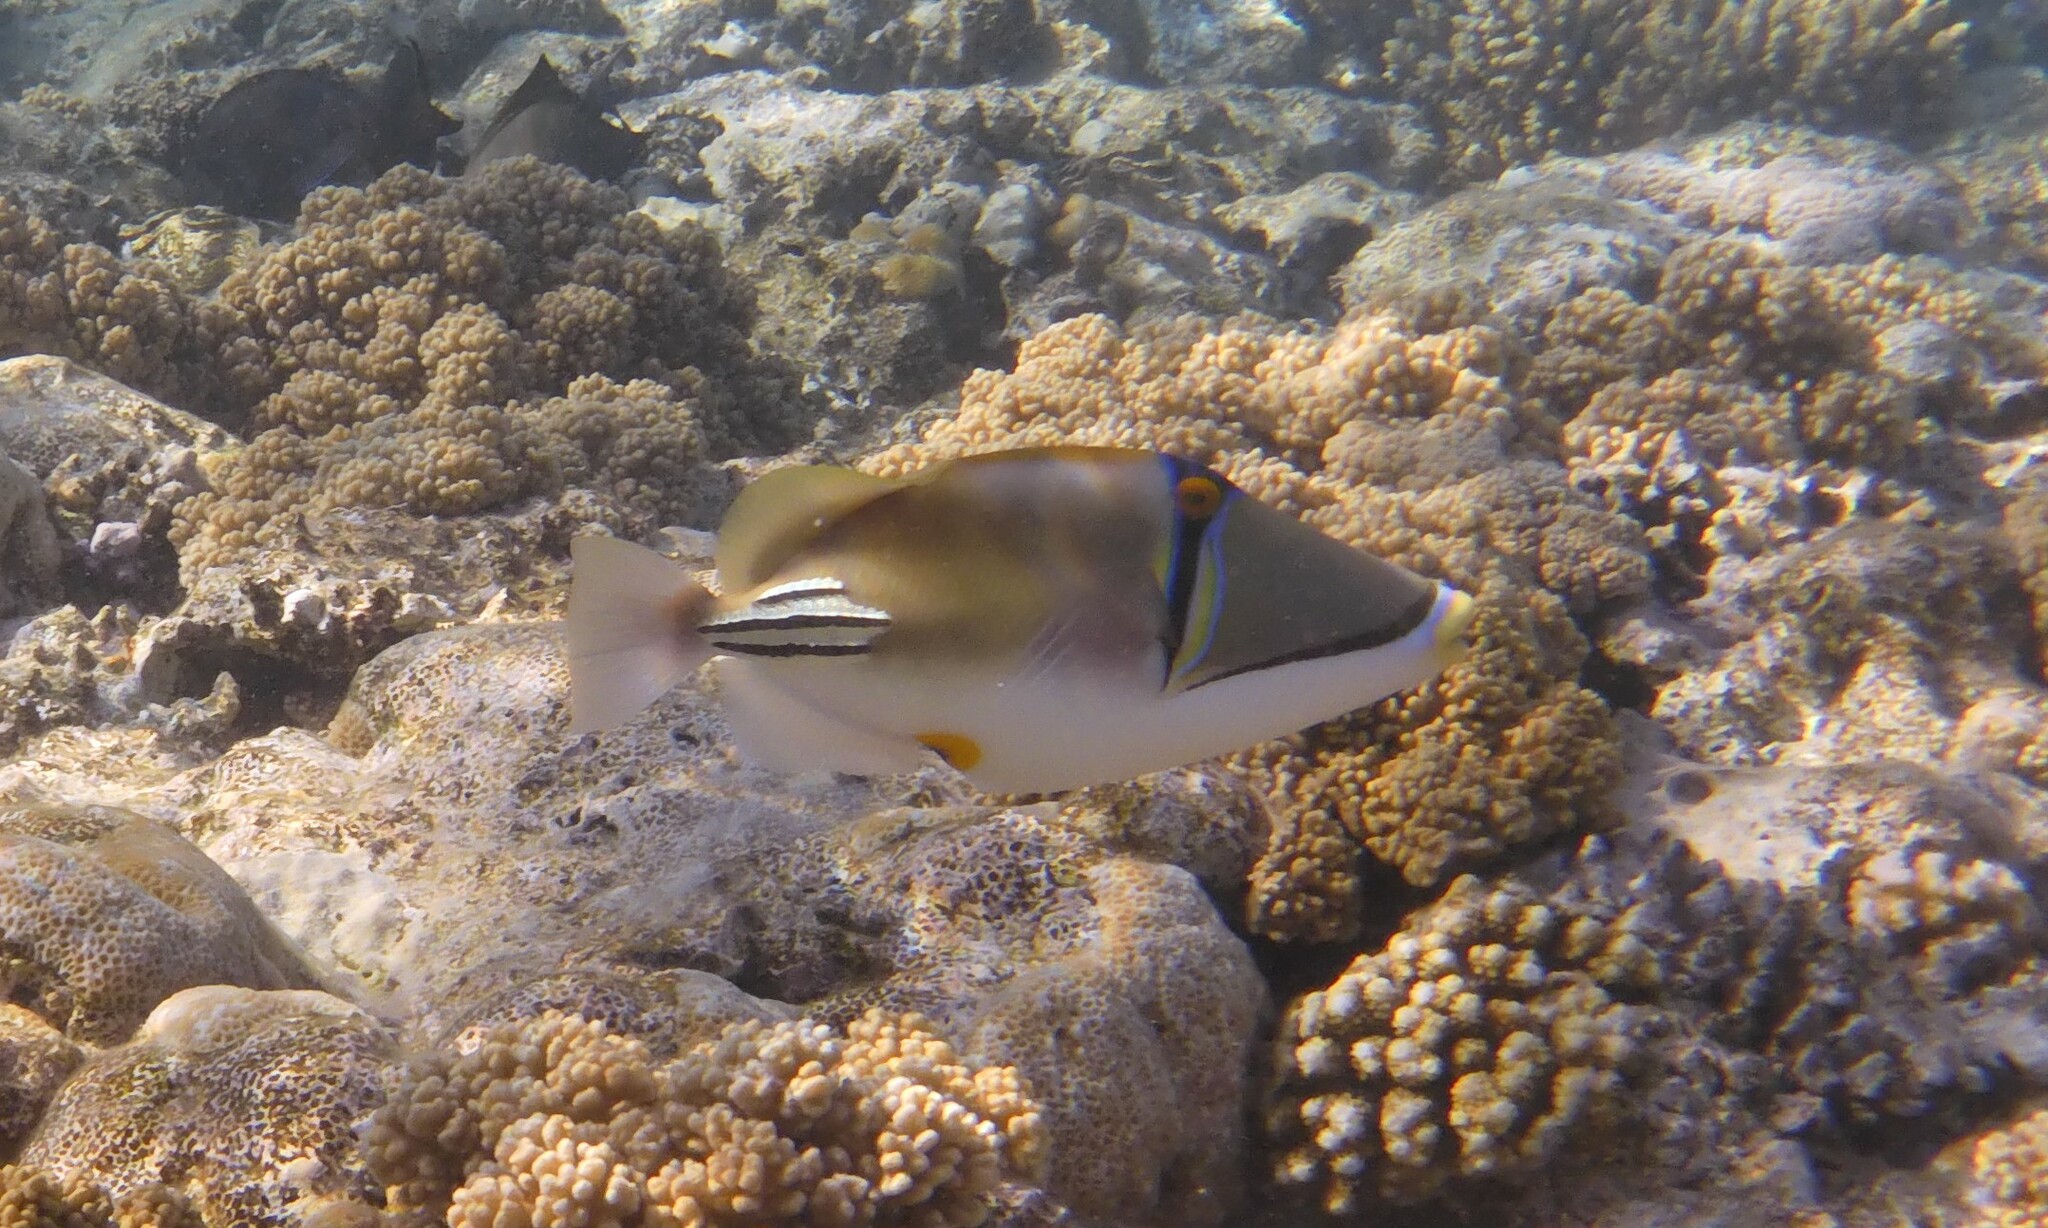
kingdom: Animalia
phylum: Chordata
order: Tetraodontiformes
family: Balistidae
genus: Rhinecanthus
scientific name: Rhinecanthus assasi
